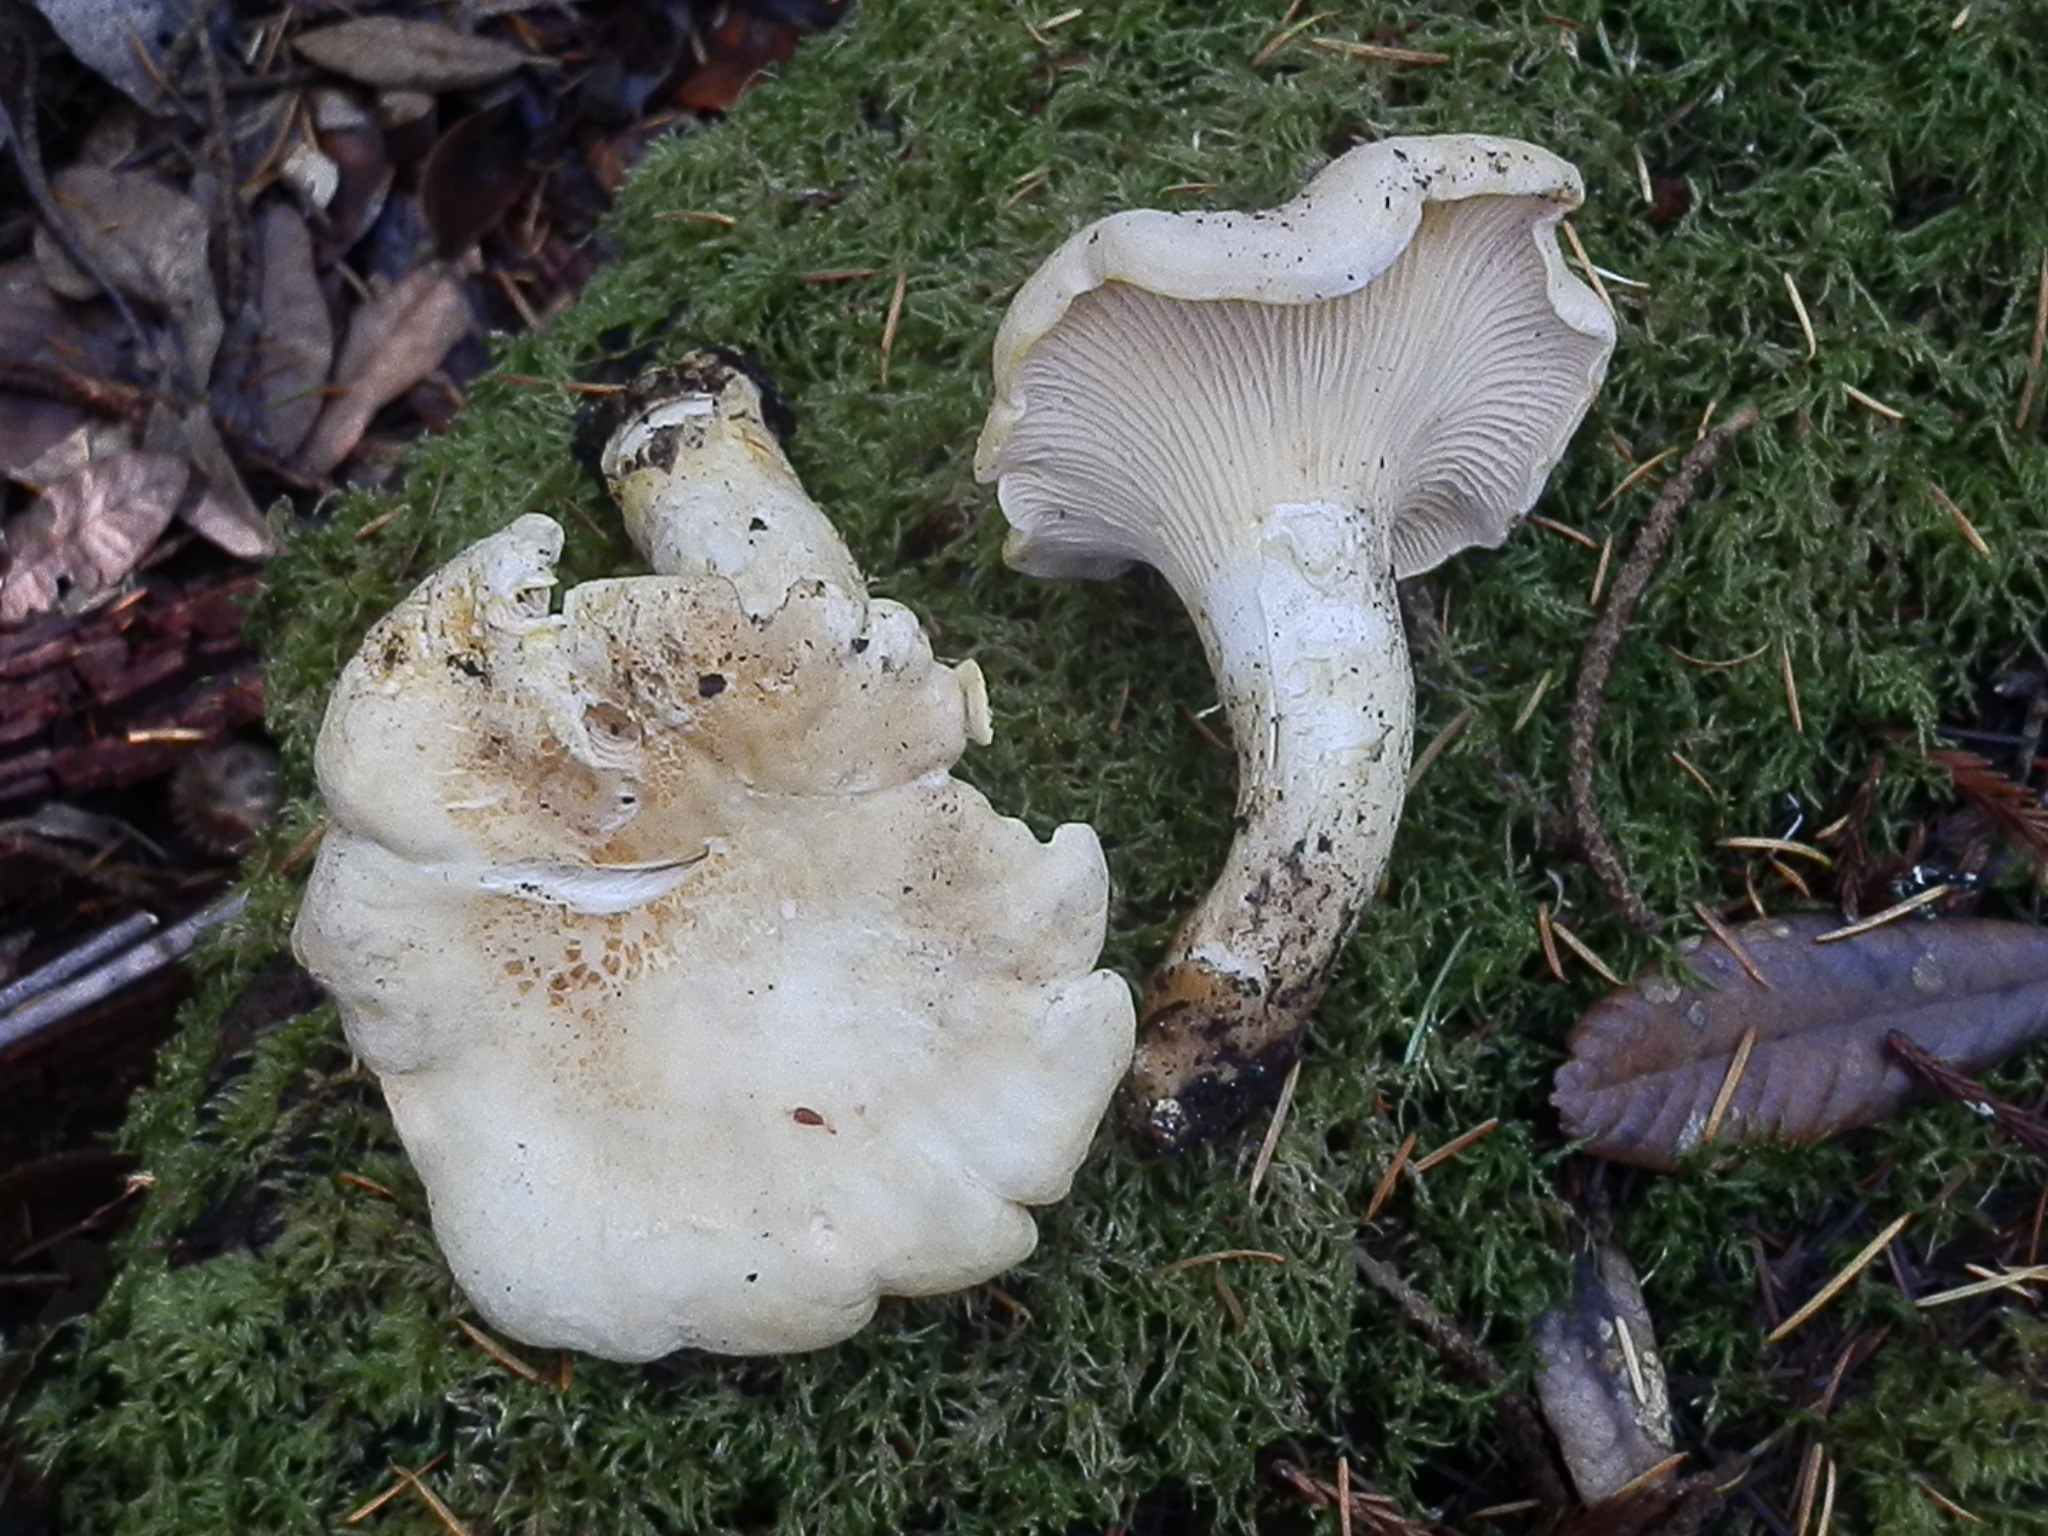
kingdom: Fungi
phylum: Basidiomycota
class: Agaricomycetes
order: Cantharellales
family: Hydnaceae
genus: Cantharellus
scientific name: Cantharellus subalbidus
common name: White chanterelle
